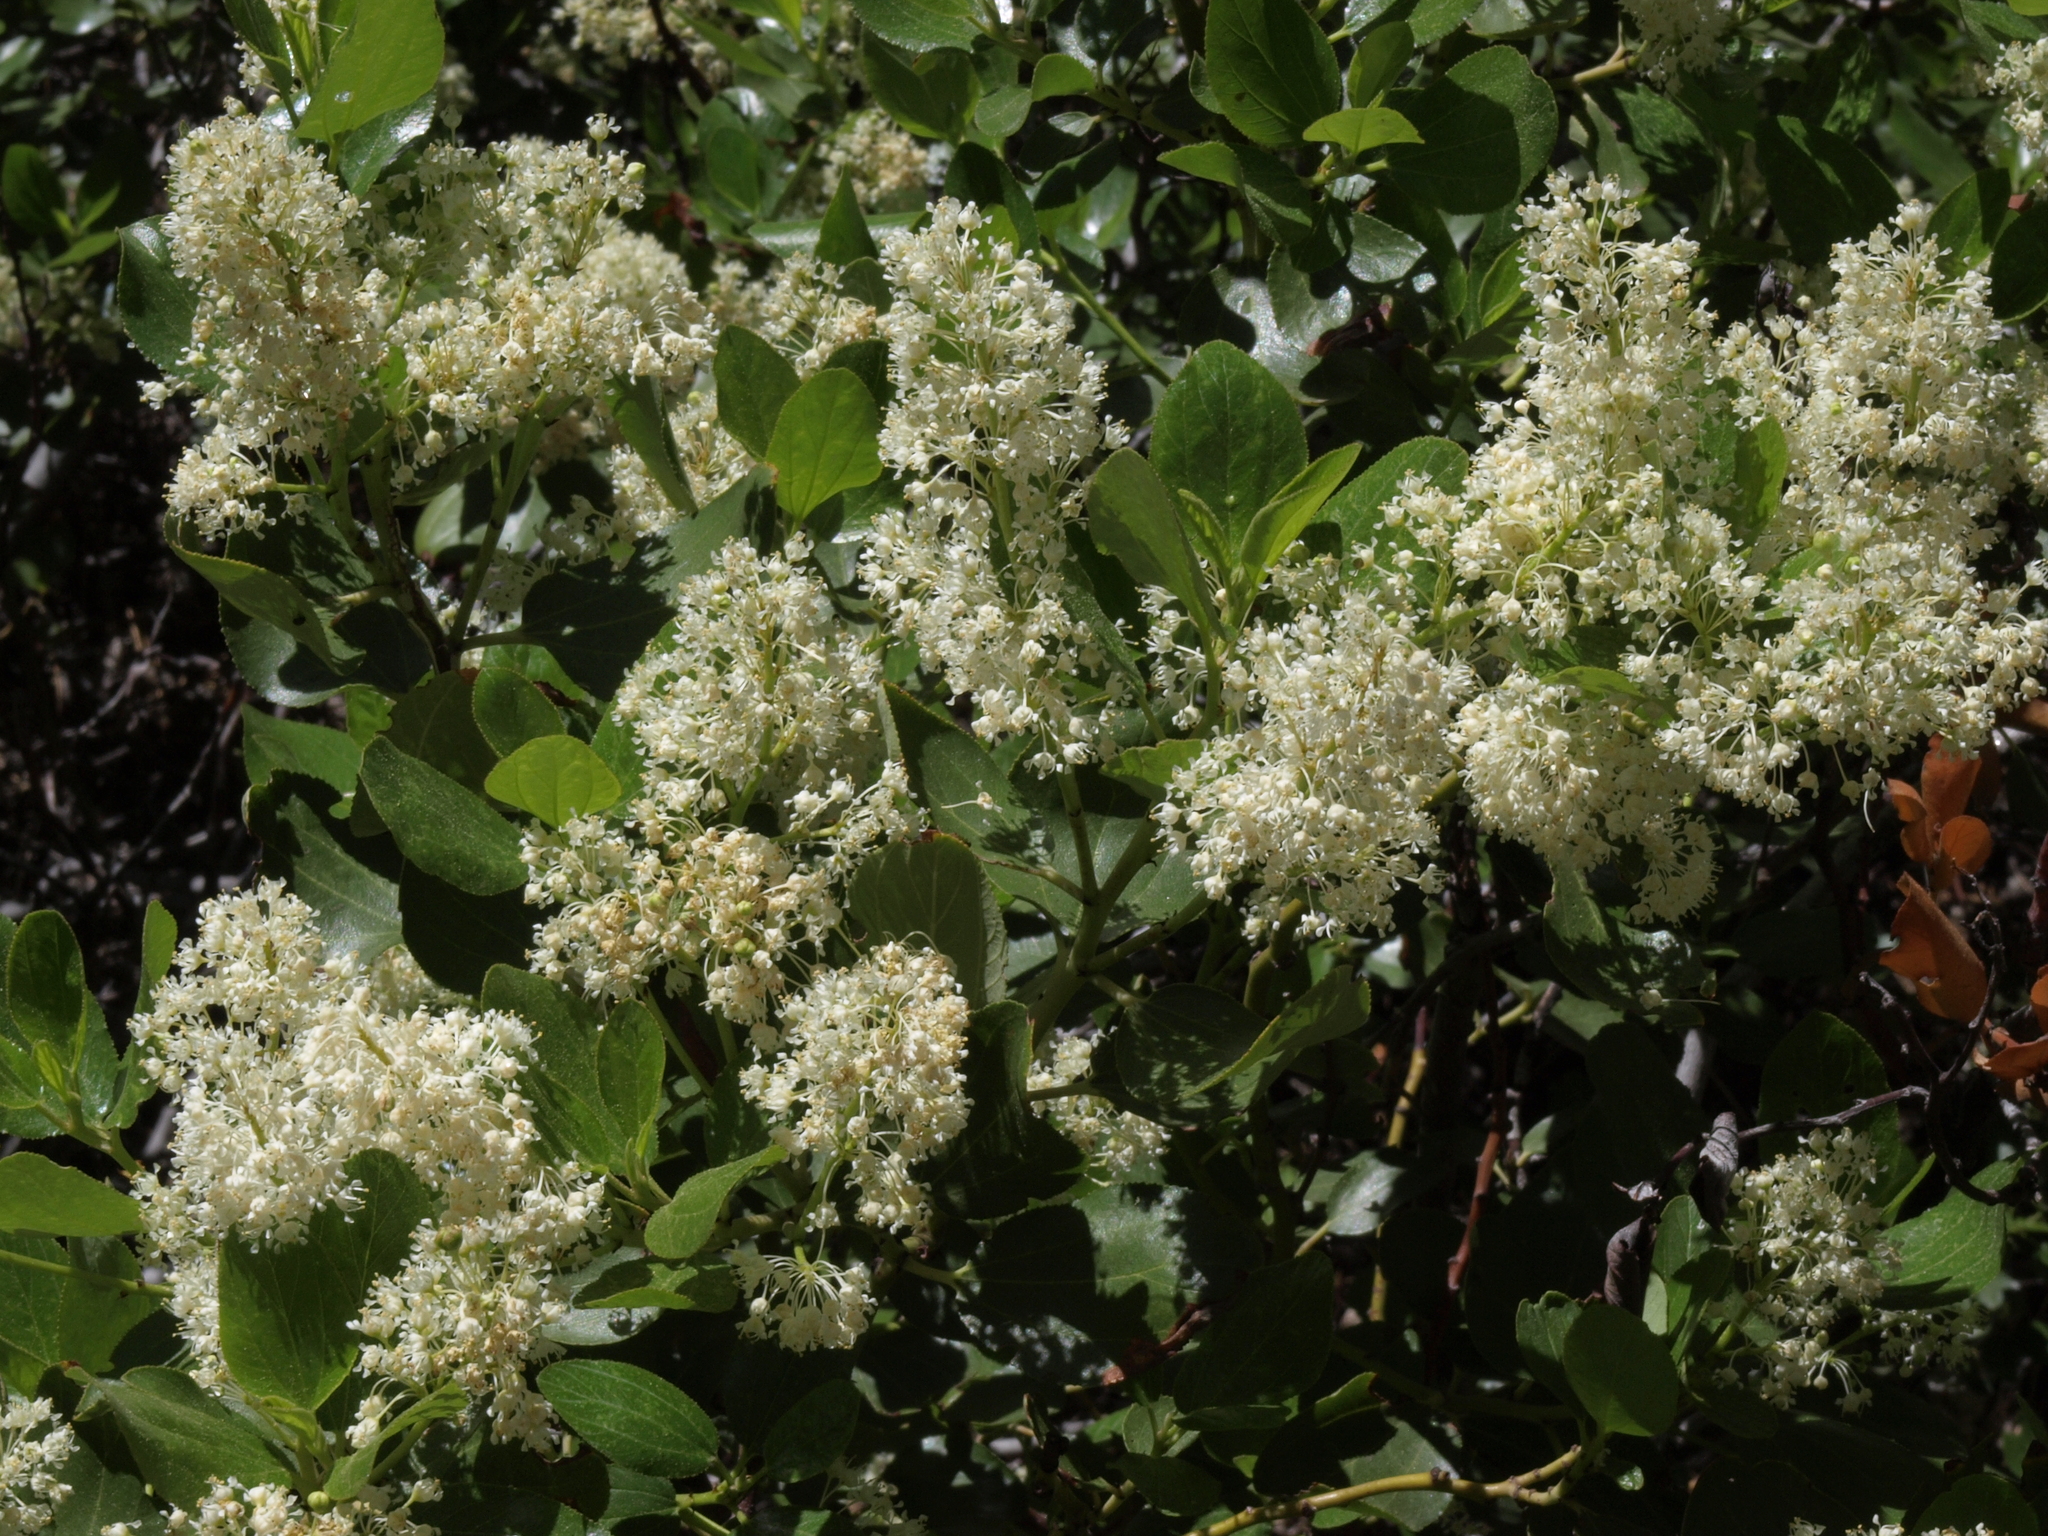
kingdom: Plantae
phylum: Tracheophyta
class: Magnoliopsida
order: Rosales
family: Rhamnaceae
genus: Ceanothus
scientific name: Ceanothus velutinus
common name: Snowbrush
